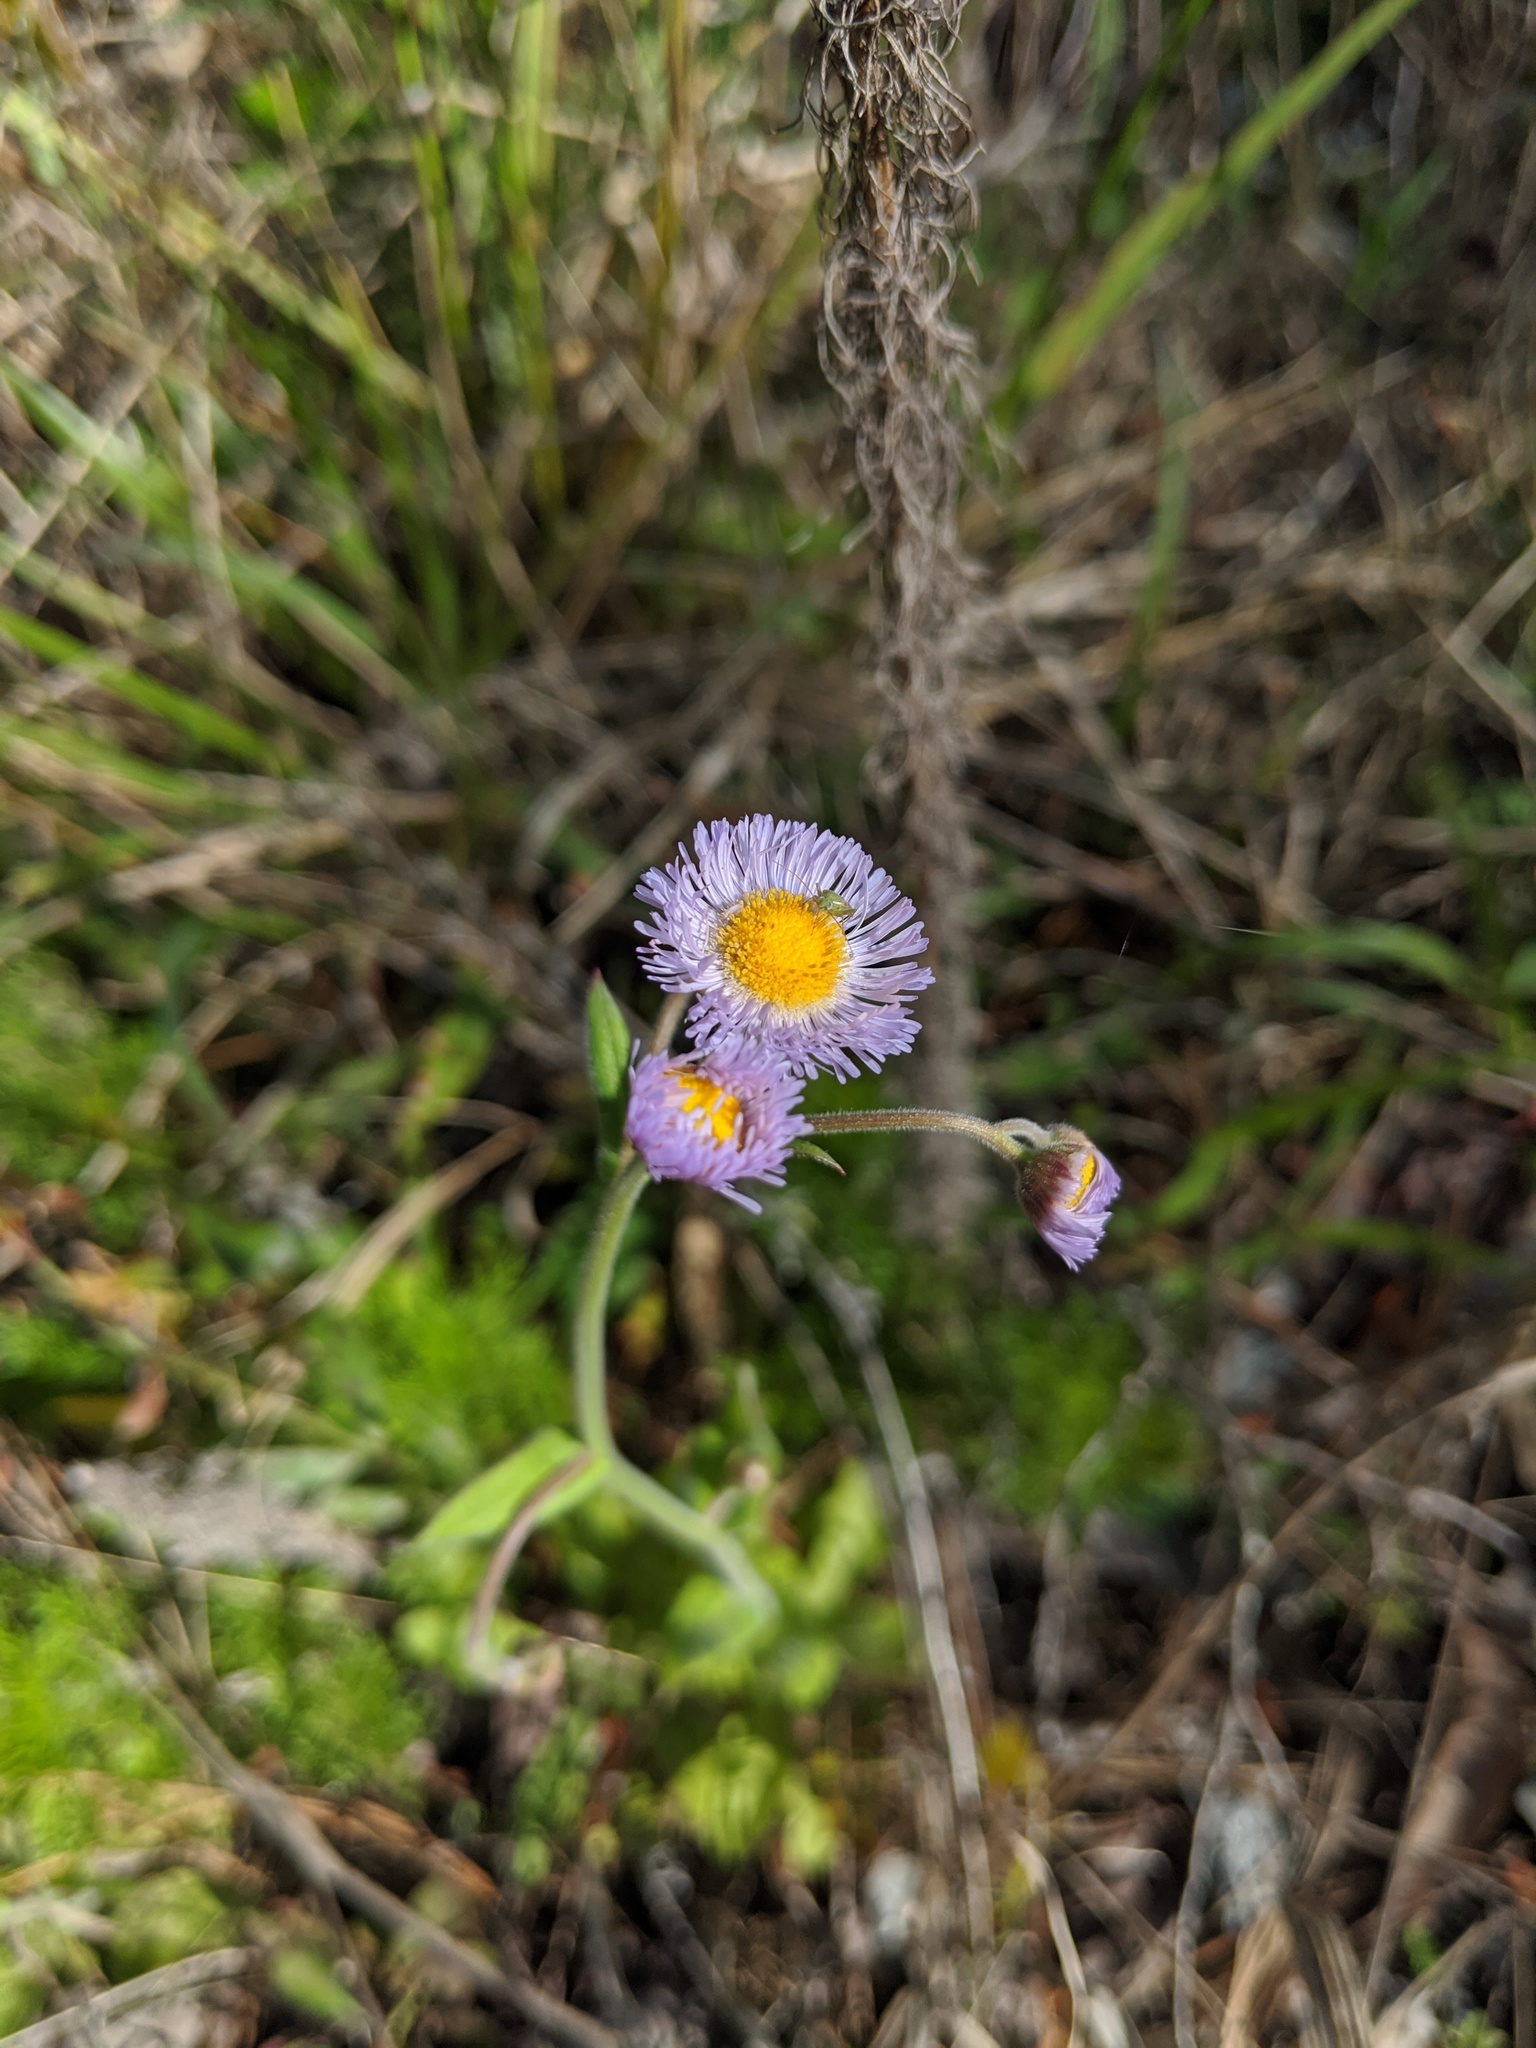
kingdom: Plantae
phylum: Tracheophyta
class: Magnoliopsida
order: Asterales
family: Asteraceae
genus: Erigeron
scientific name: Erigeron quercifolius
